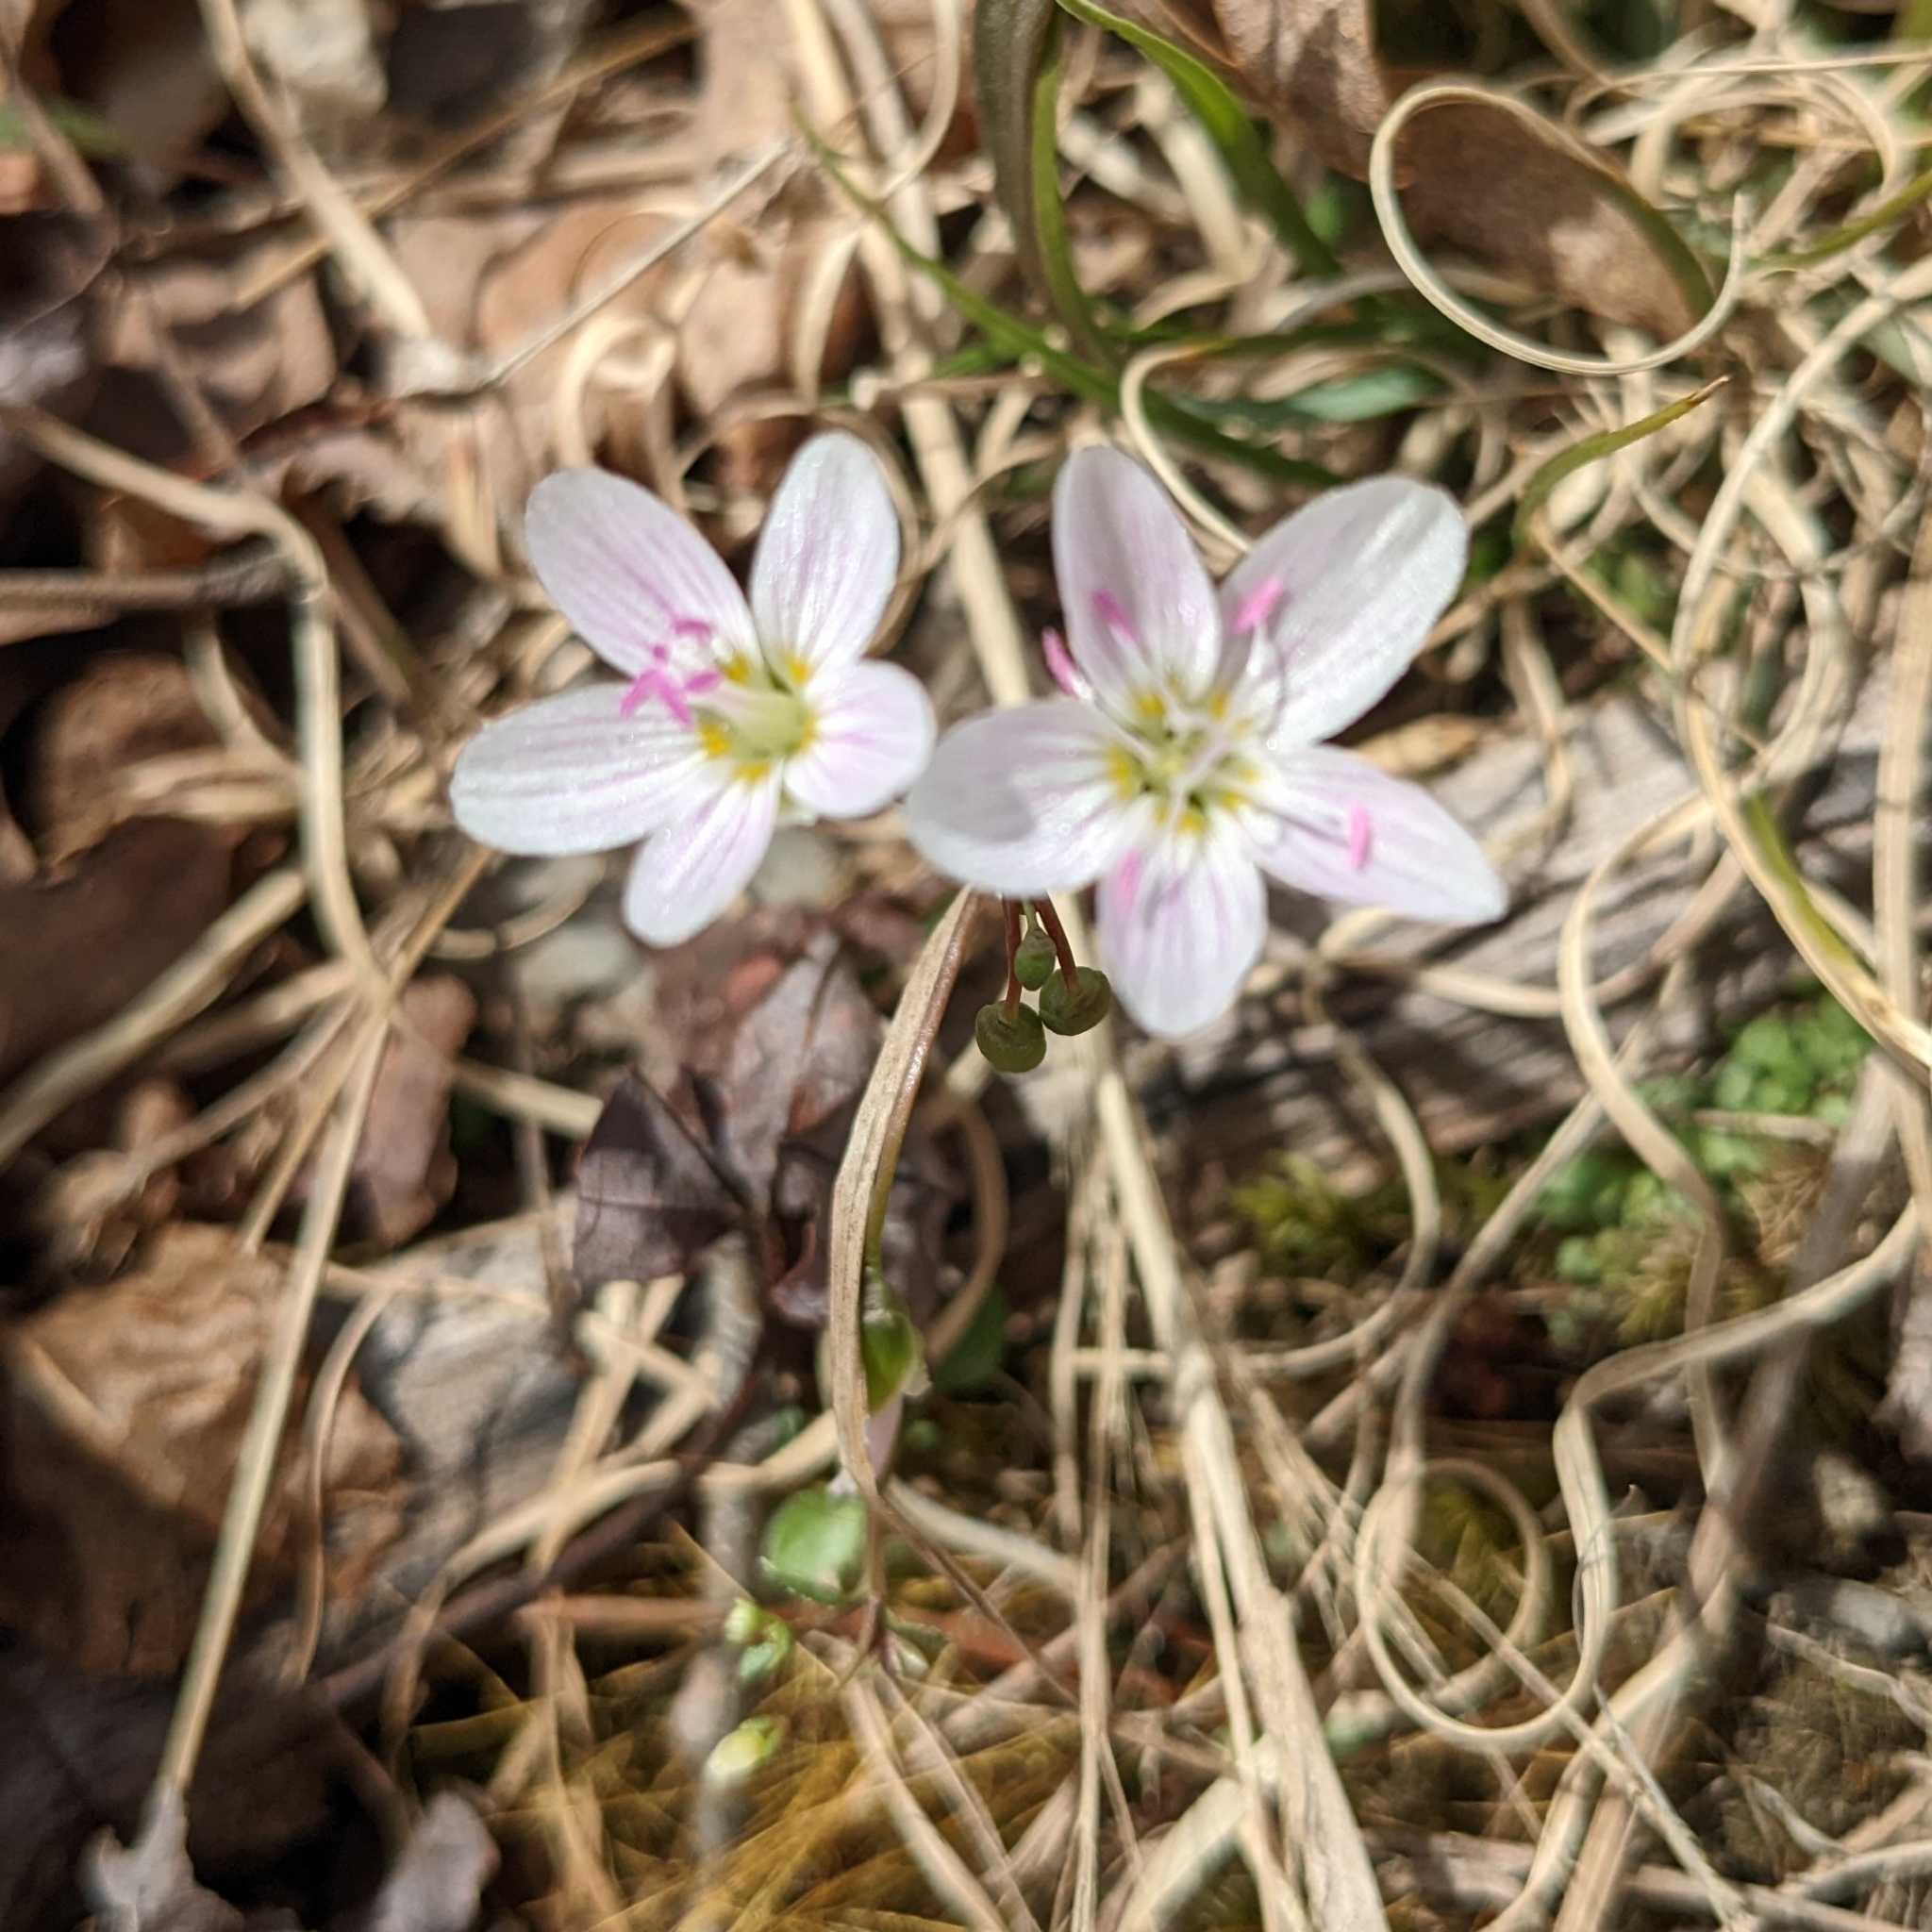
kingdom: Plantae
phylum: Tracheophyta
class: Magnoliopsida
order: Caryophyllales
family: Montiaceae
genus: Claytonia
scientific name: Claytonia virginica
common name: Virginia springbeauty
